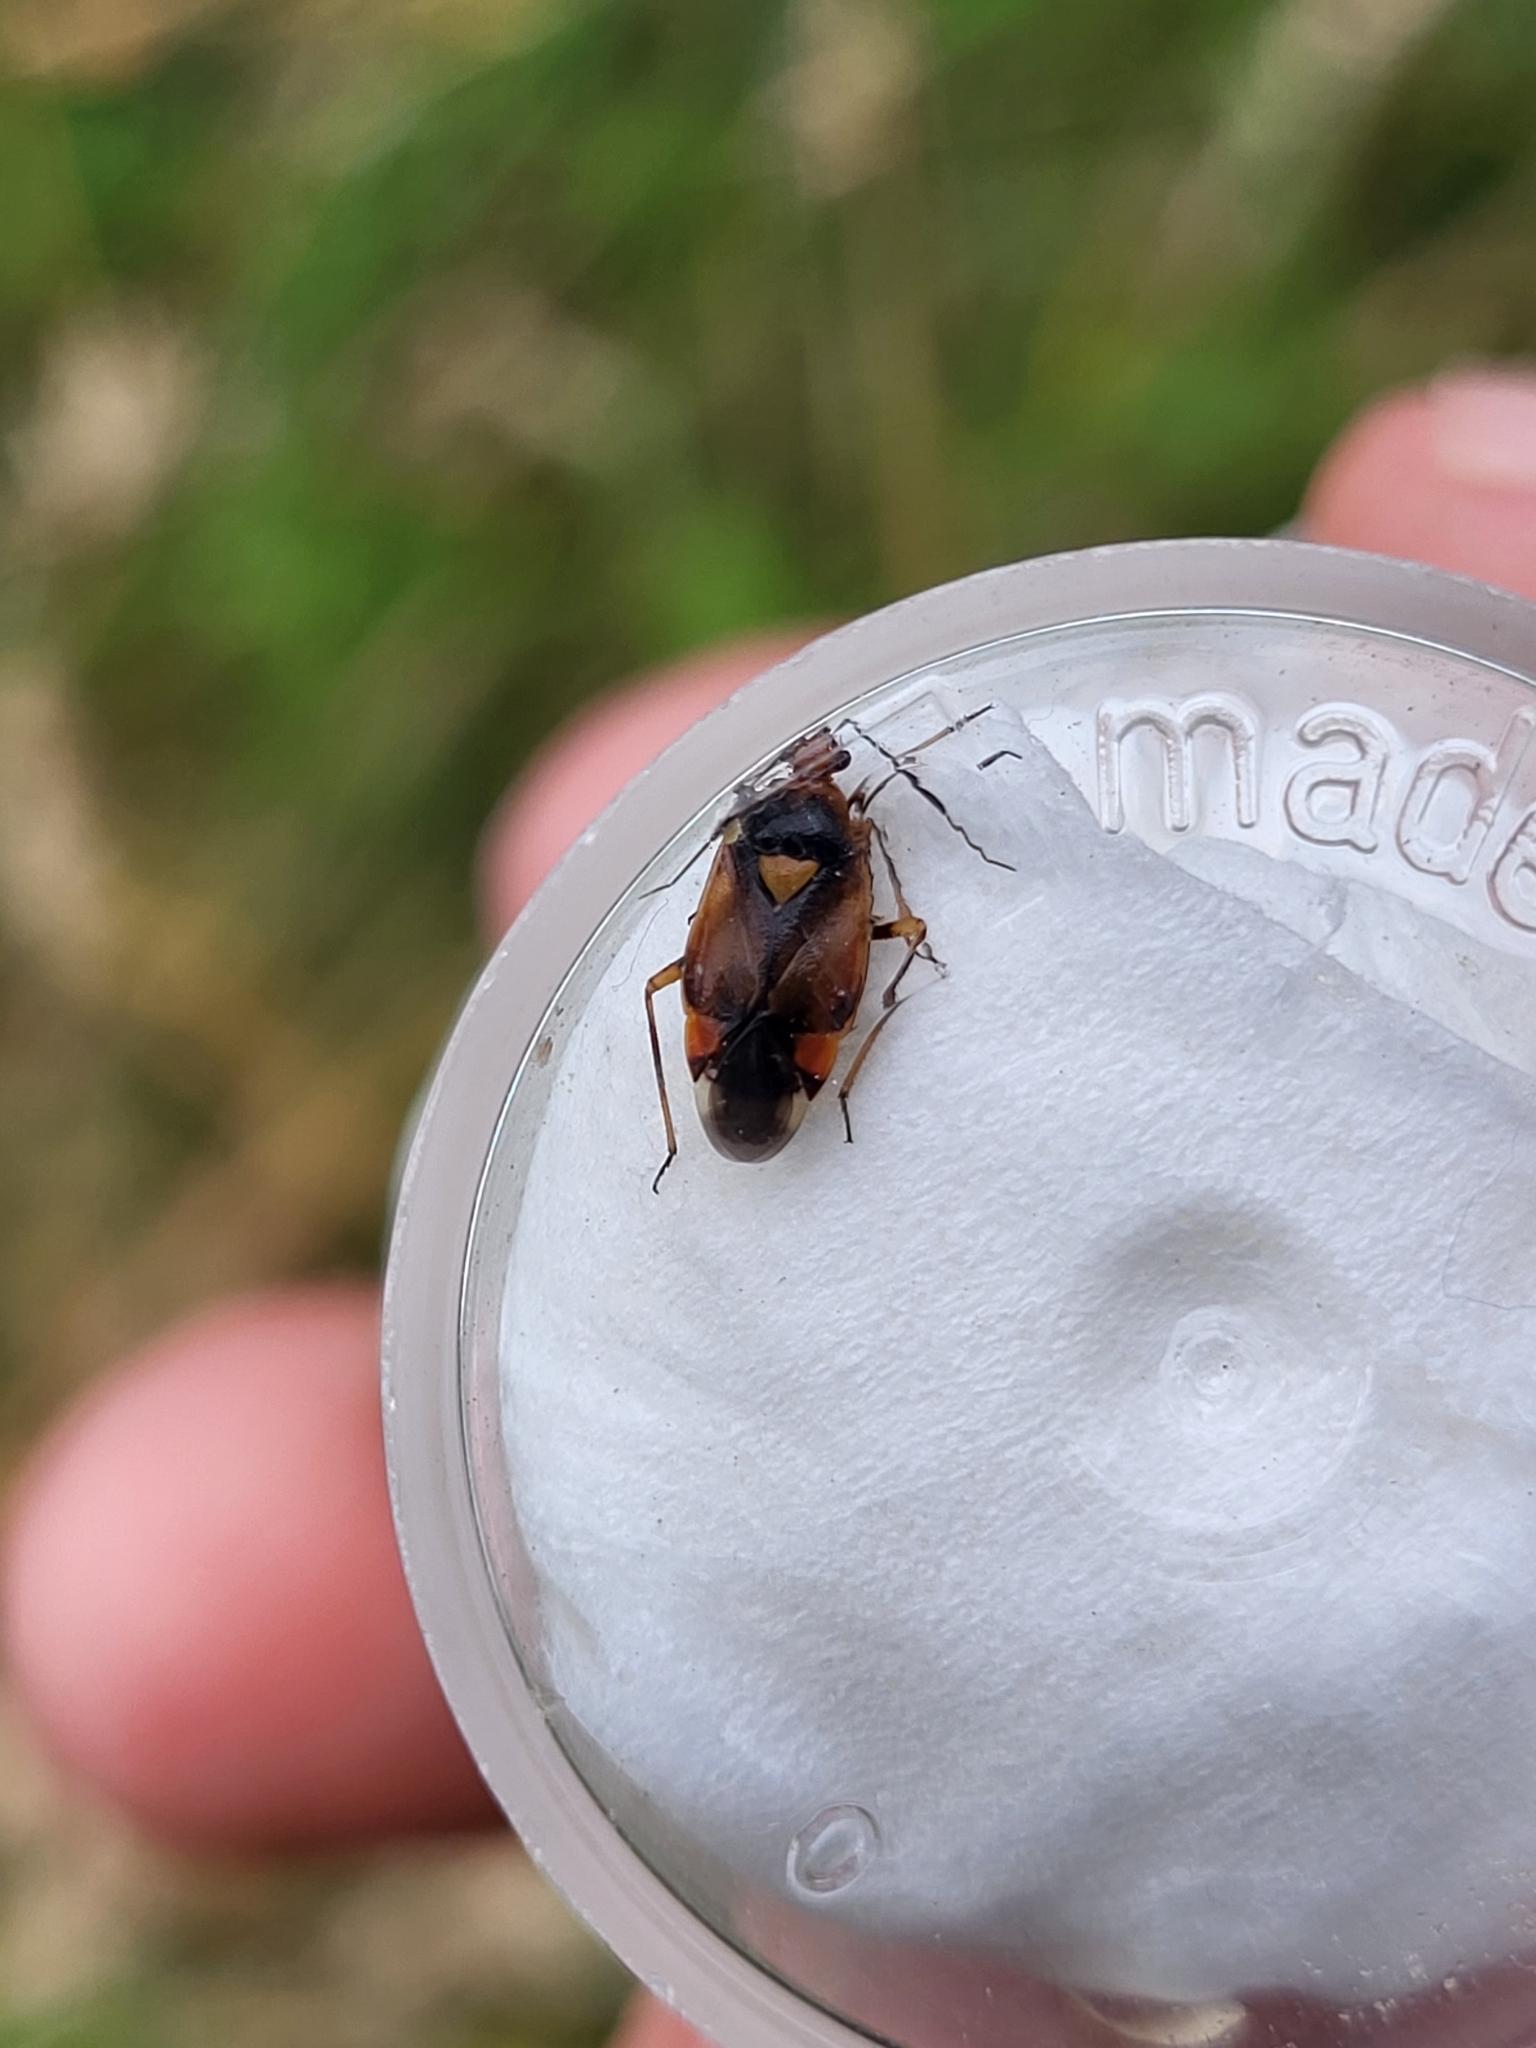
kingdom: Animalia
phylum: Arthropoda
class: Insecta
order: Hemiptera
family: Miridae
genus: Deraeocoris
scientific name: Deraeocoris ruber
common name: Plant bug
